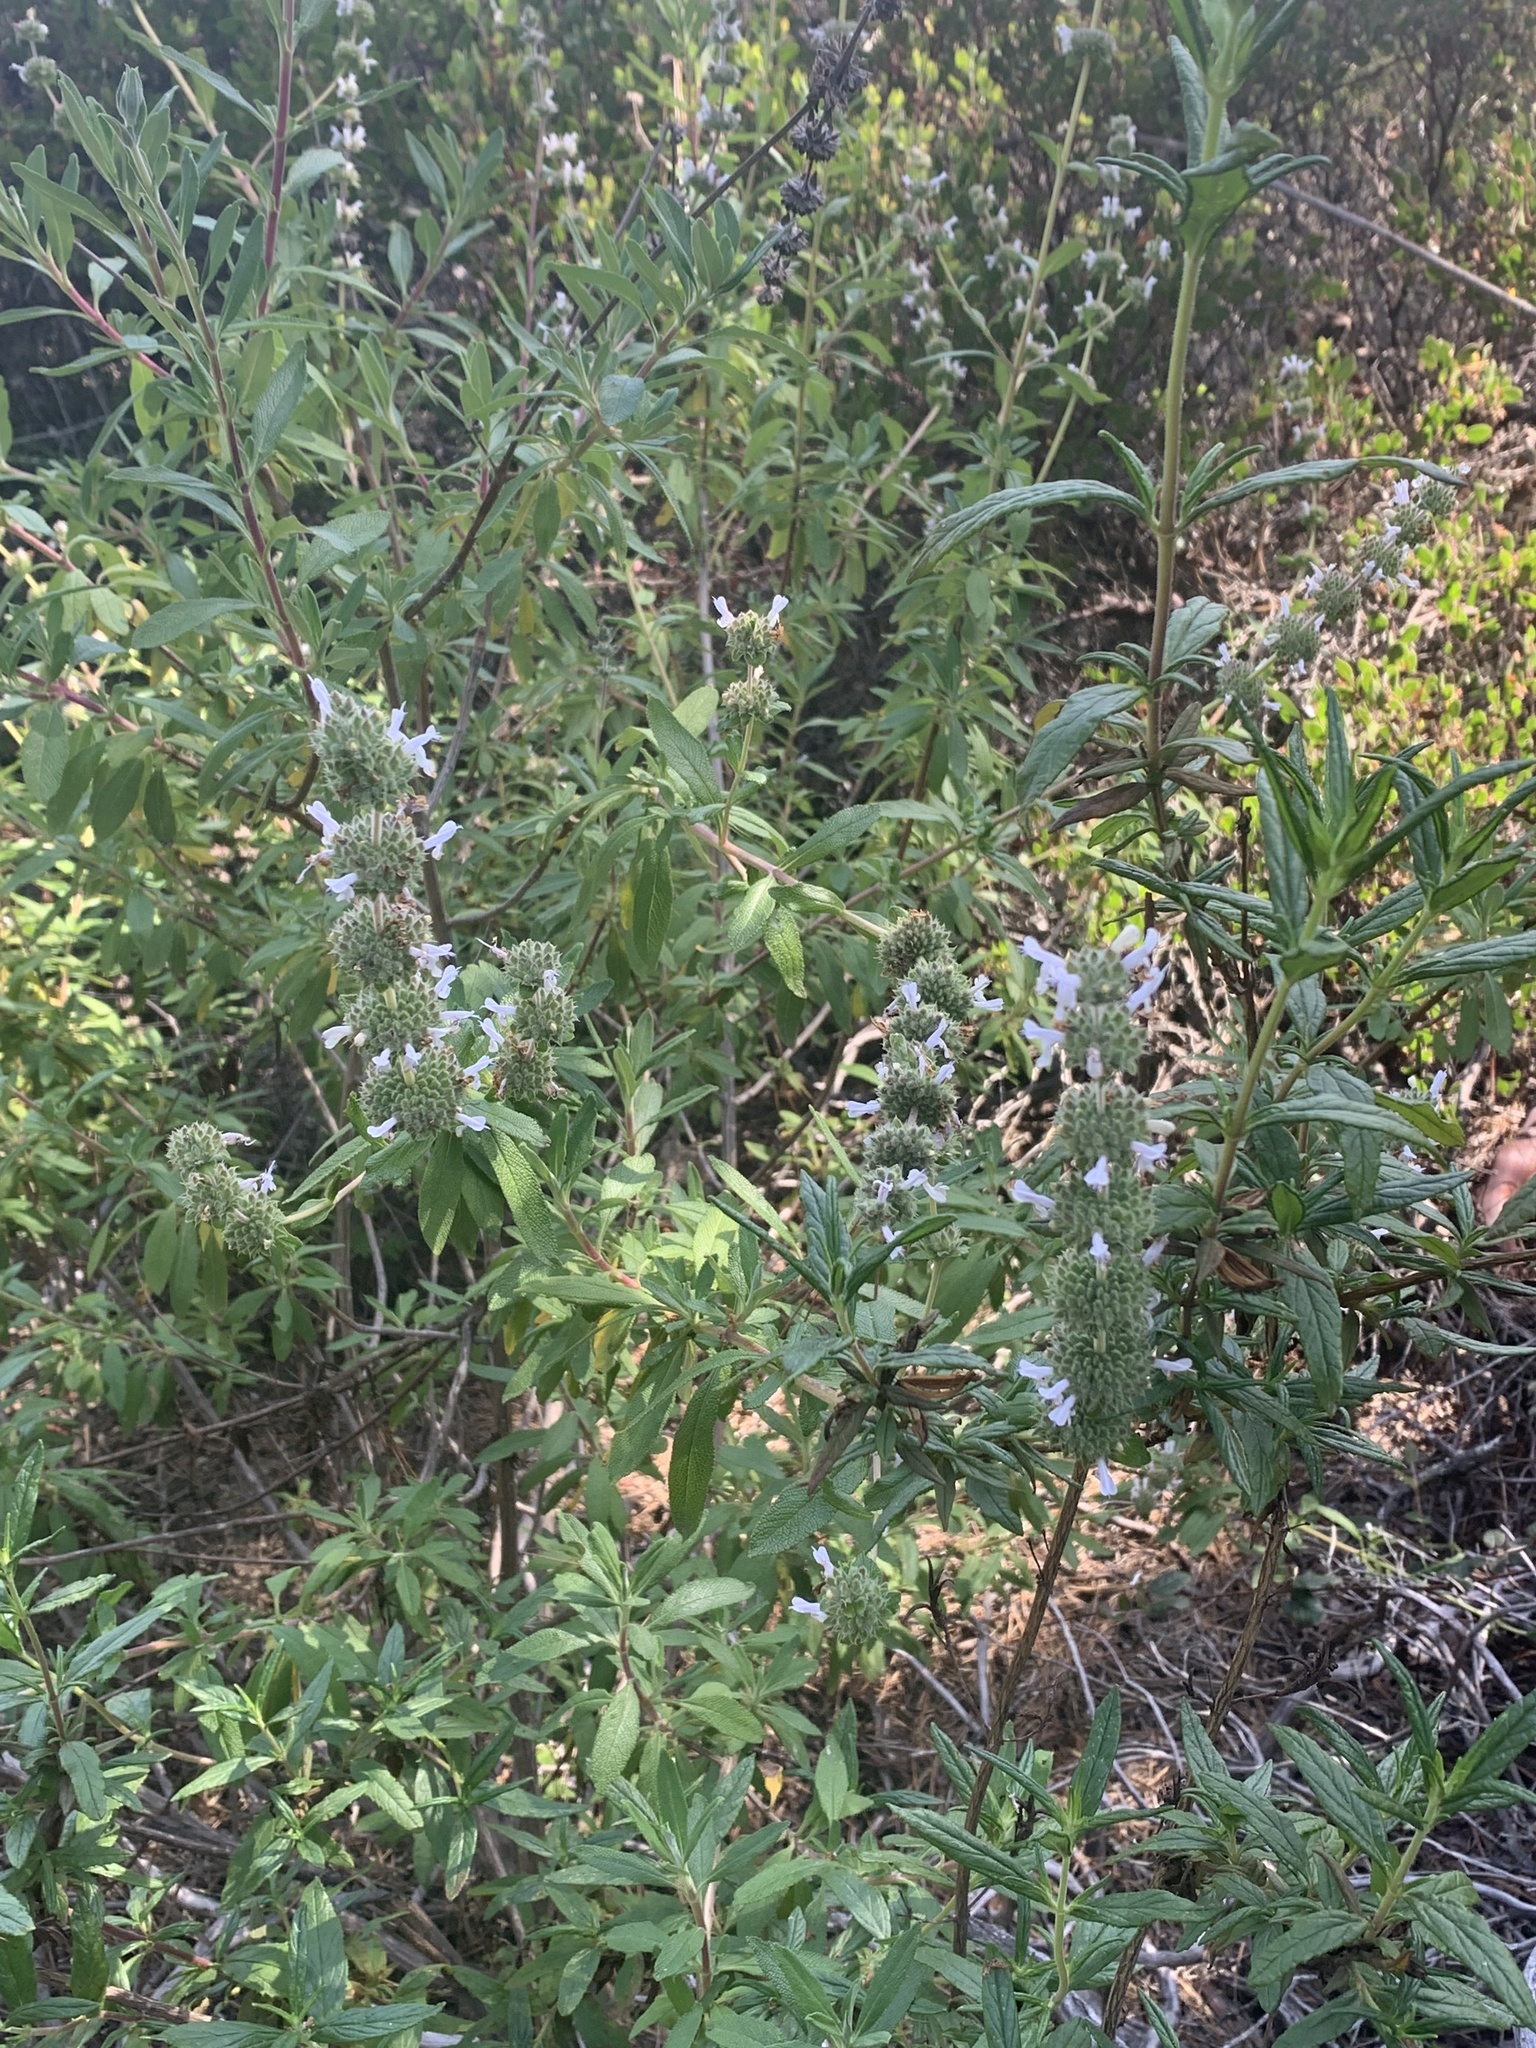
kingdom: Plantae
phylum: Tracheophyta
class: Magnoliopsida
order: Lamiales
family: Lamiaceae
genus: Salvia
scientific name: Salvia mellifera
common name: Black sage
